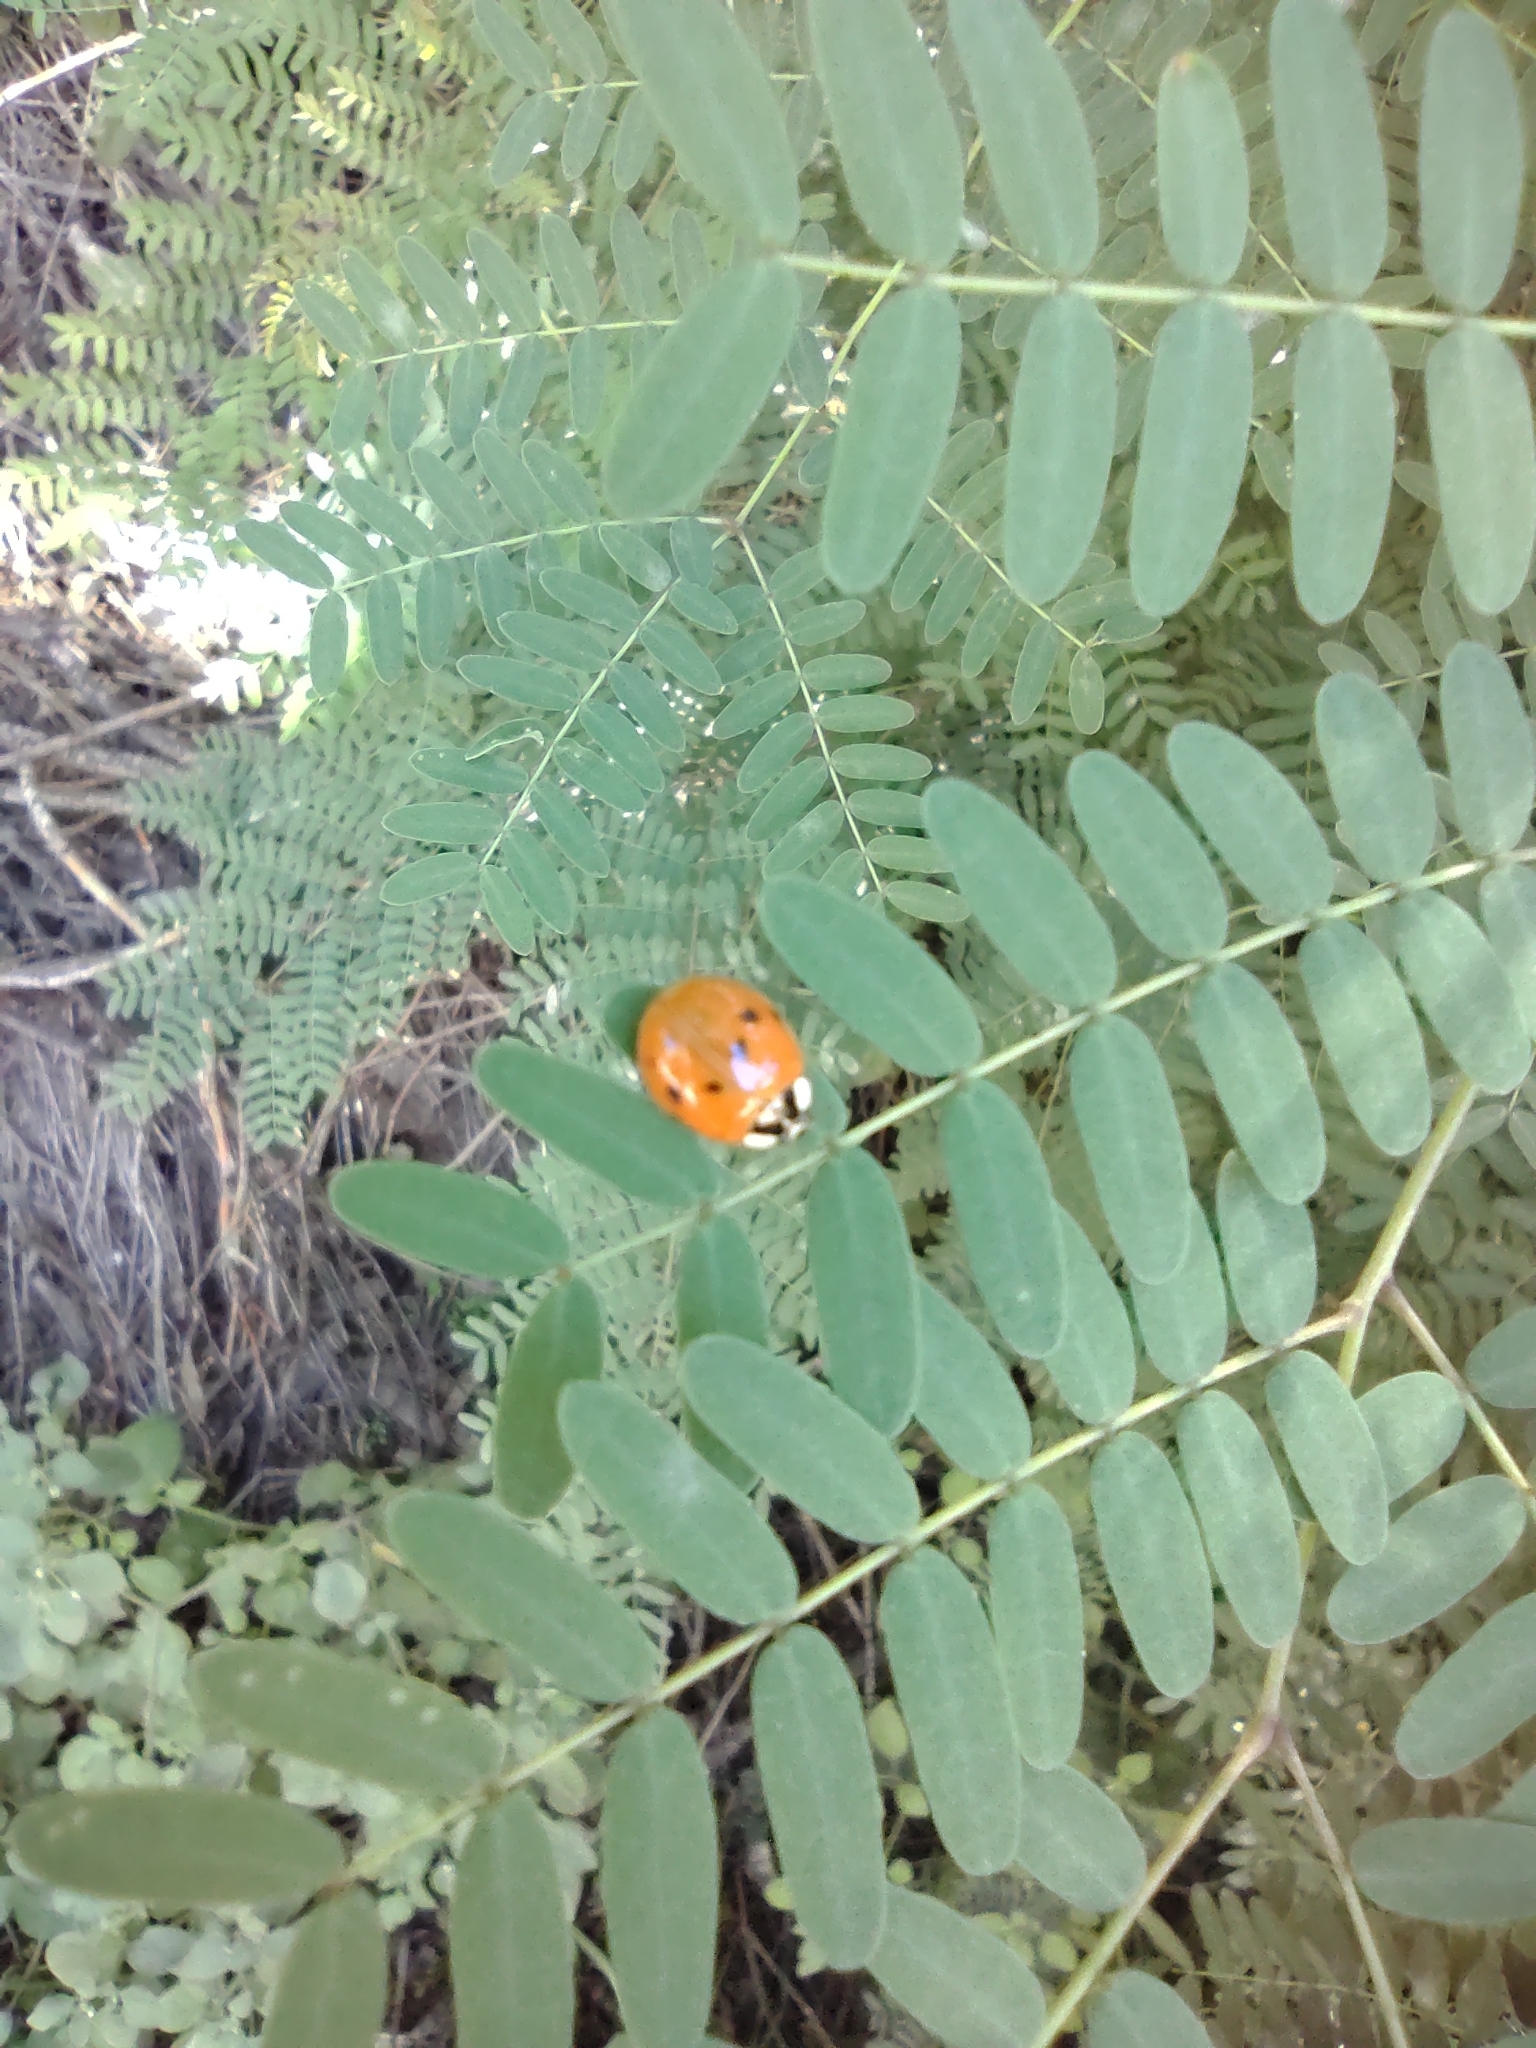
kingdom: Animalia
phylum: Arthropoda
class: Insecta
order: Coleoptera
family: Coccinellidae
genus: Harmonia
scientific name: Harmonia axyridis
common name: Harlequin ladybird
